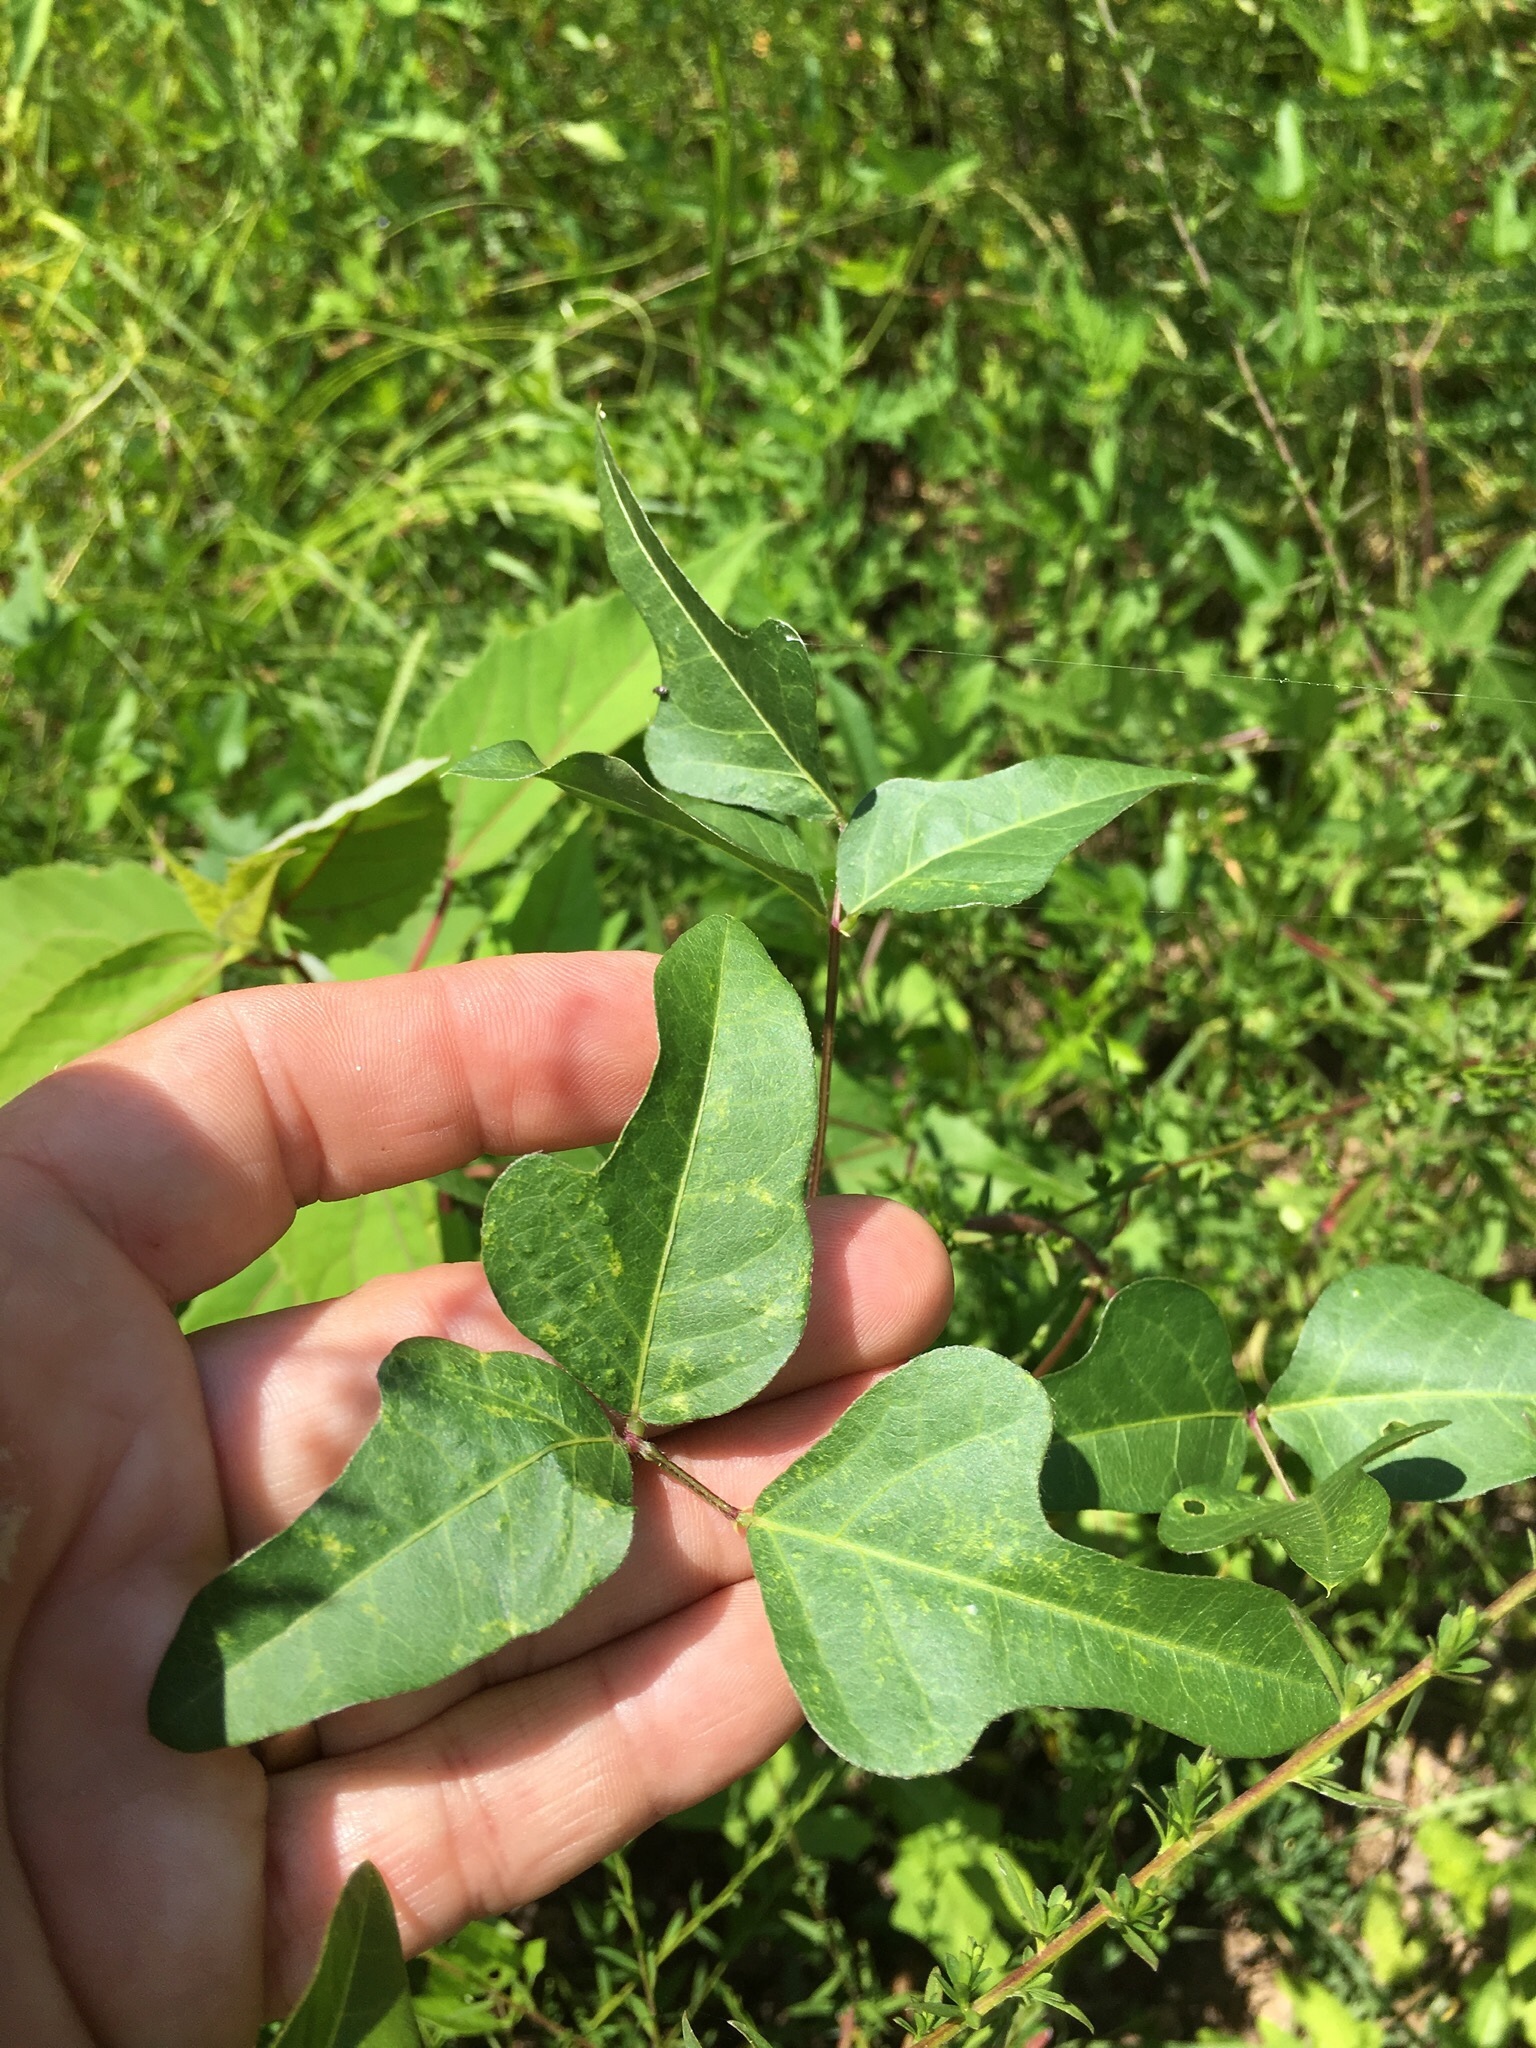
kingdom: Plantae
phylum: Tracheophyta
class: Magnoliopsida
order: Fabales
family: Fabaceae
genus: Strophostyles
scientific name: Strophostyles helvola
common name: Trailing wild bean
